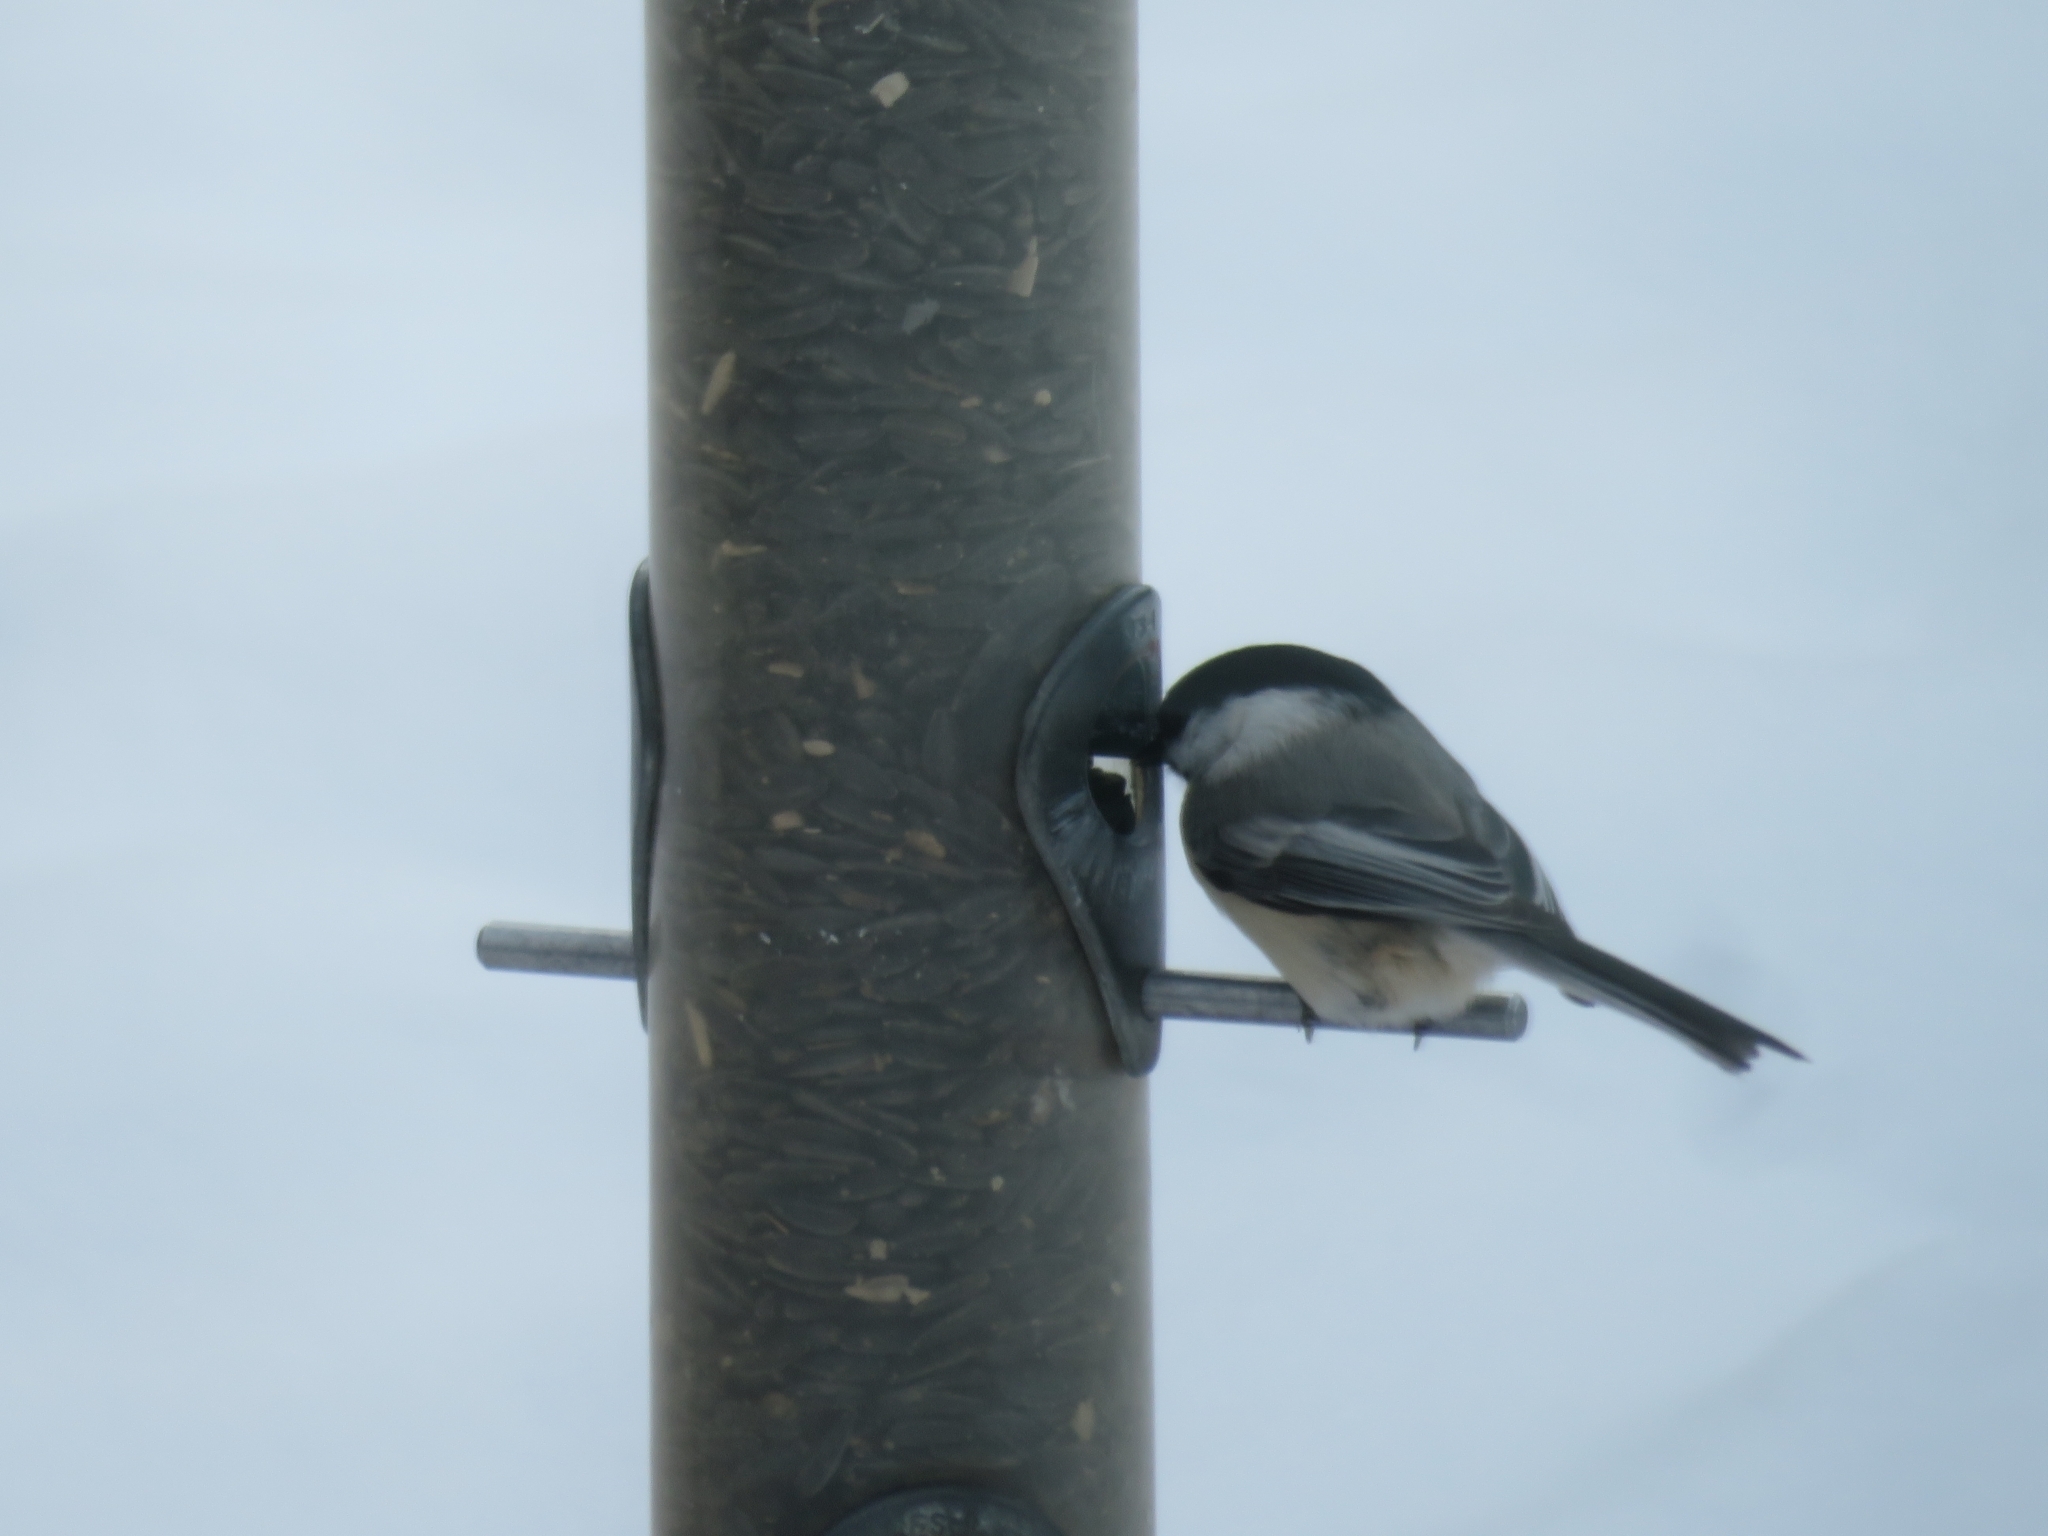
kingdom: Animalia
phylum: Chordata
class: Aves
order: Passeriformes
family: Paridae
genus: Poecile
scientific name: Poecile atricapillus
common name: Black-capped chickadee
